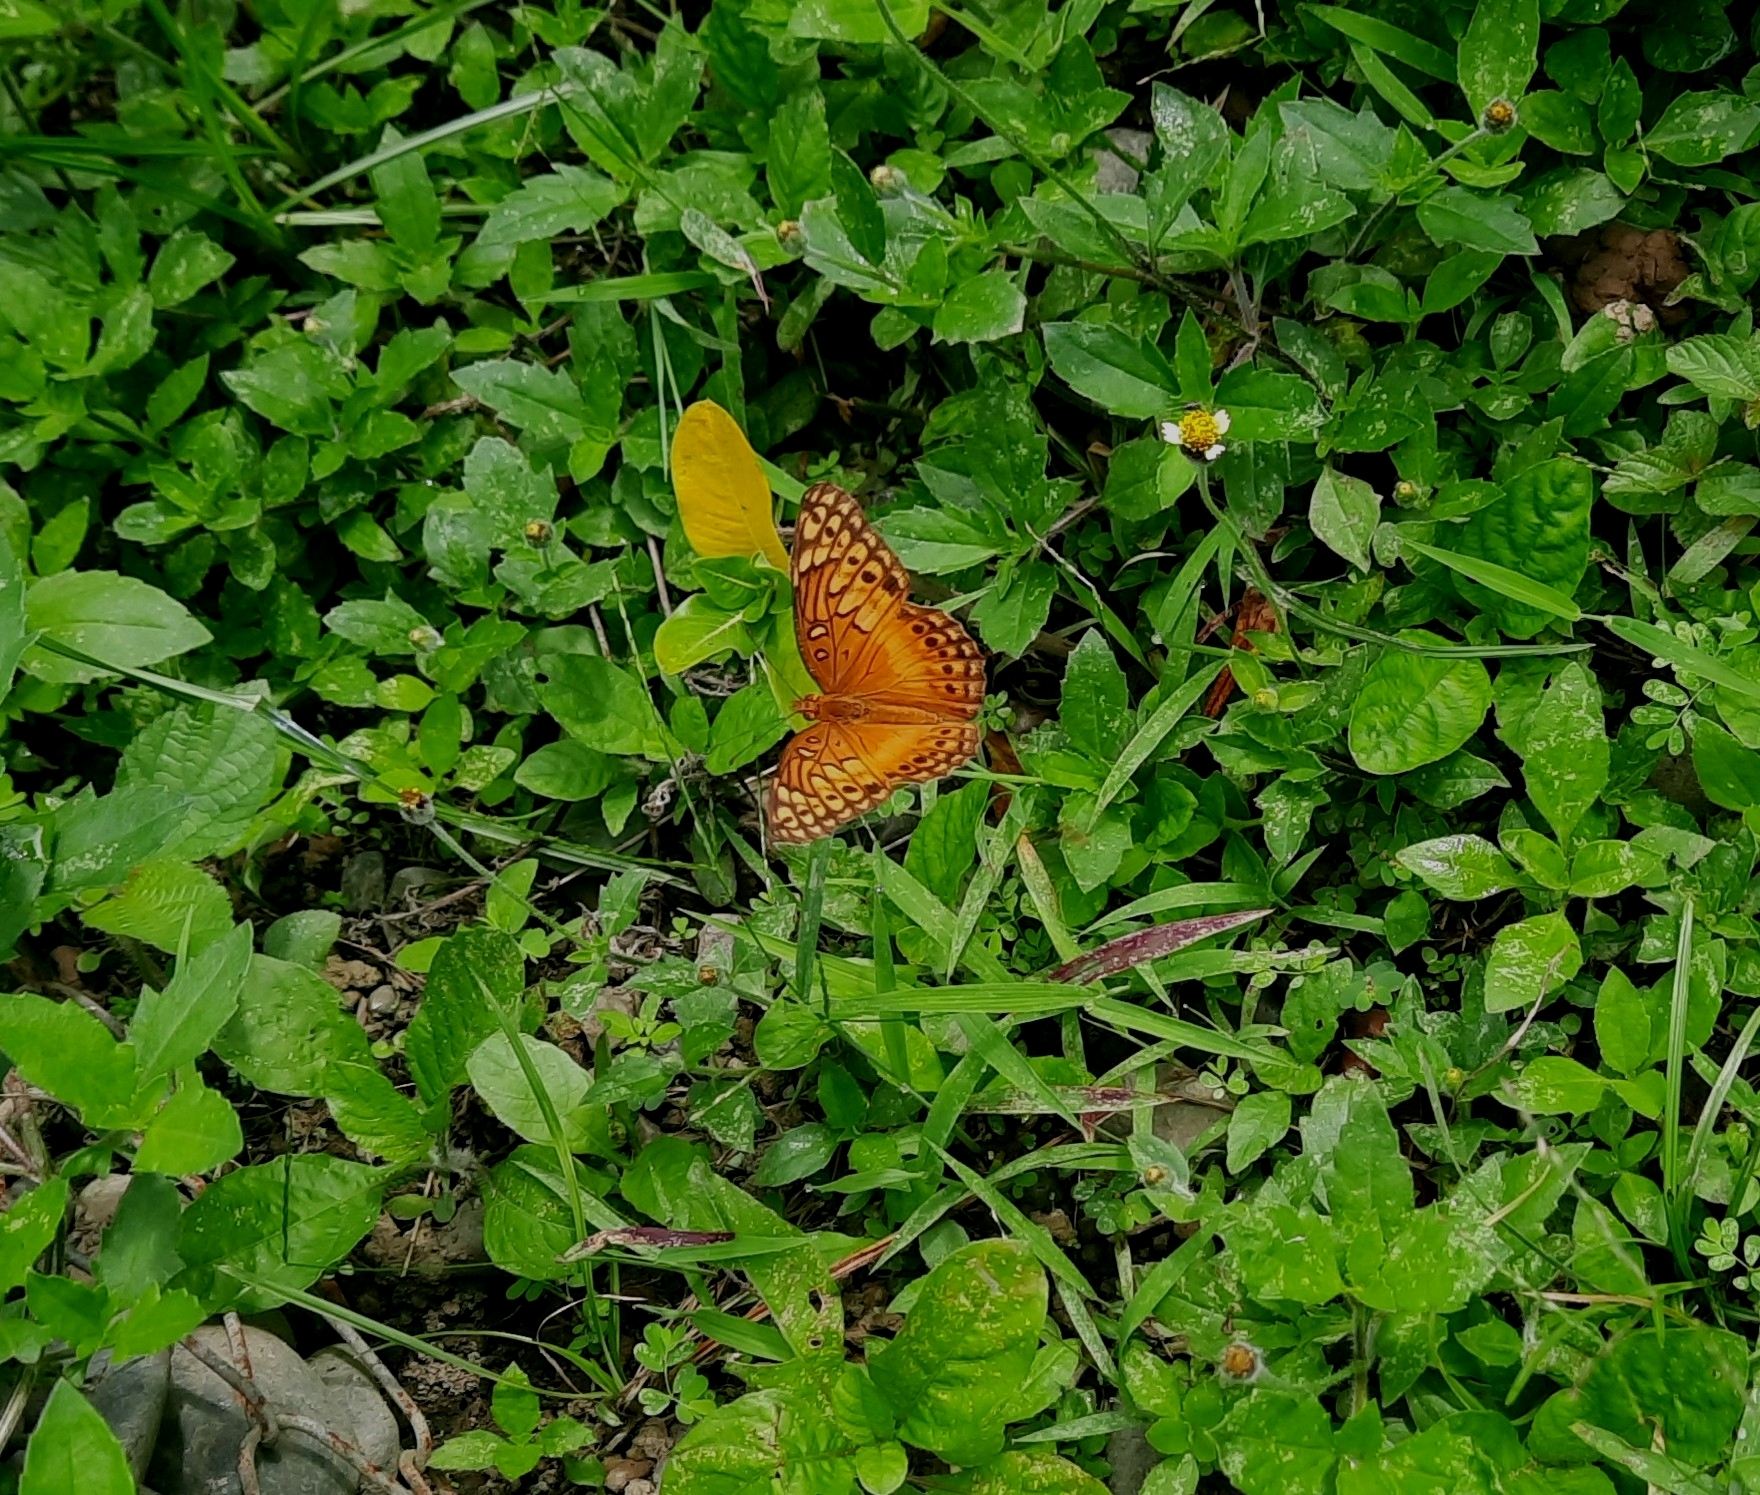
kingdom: Animalia
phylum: Arthropoda
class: Insecta
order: Lepidoptera
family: Nymphalidae
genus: Euptoieta
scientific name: Euptoieta hegesia
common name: Mexican fritillary
